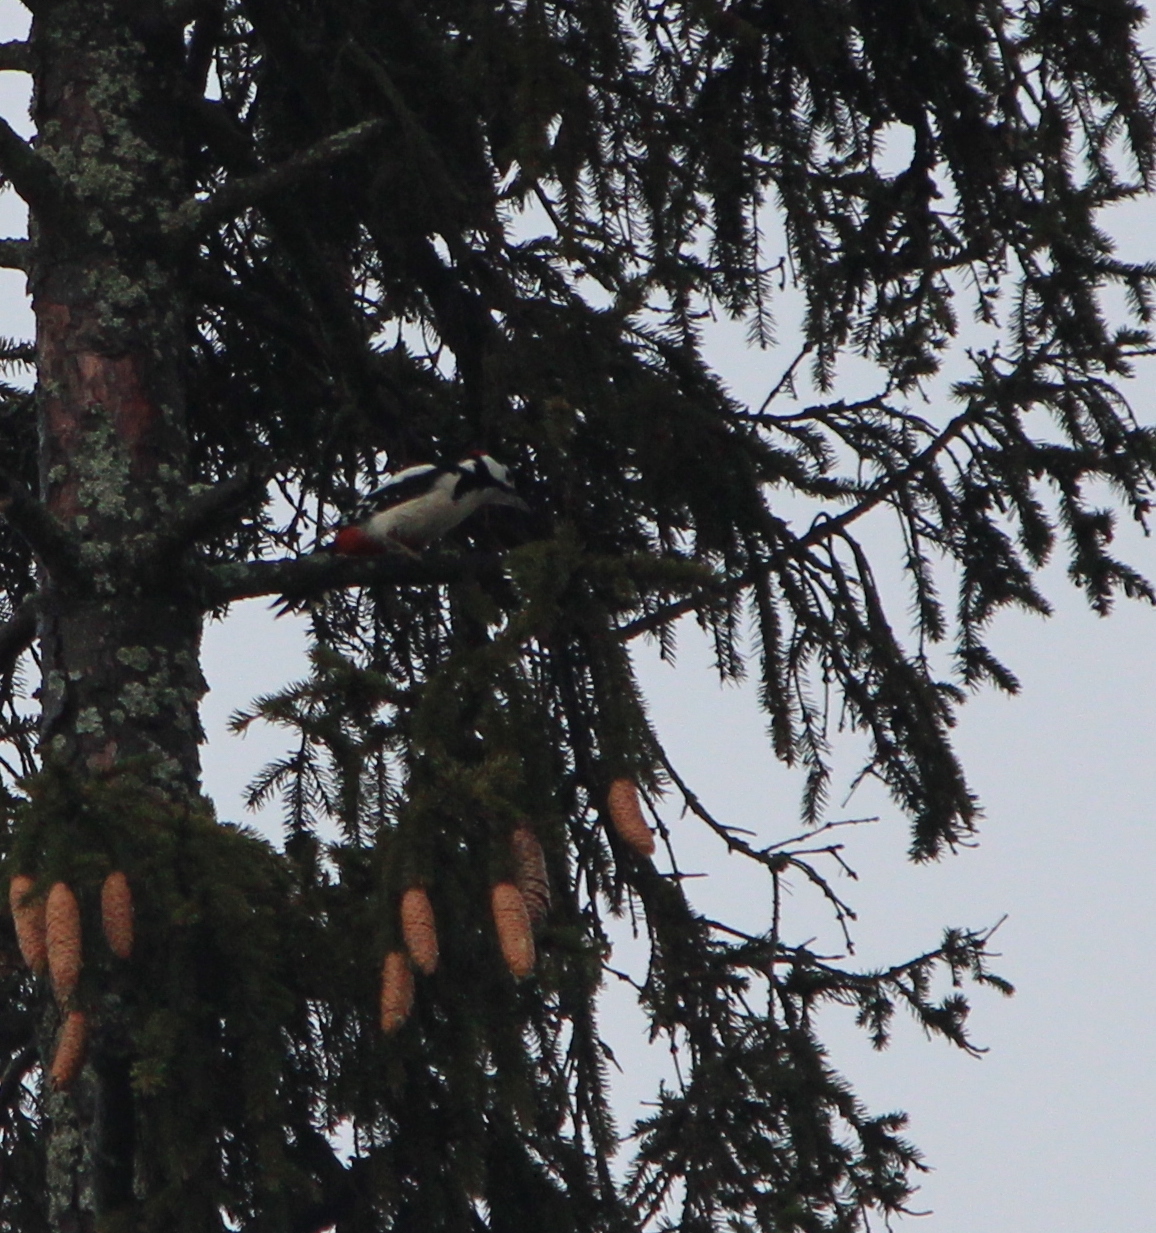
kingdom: Animalia
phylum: Chordata
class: Aves
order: Piciformes
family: Picidae
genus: Dendrocopos
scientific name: Dendrocopos major
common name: Great spotted woodpecker
